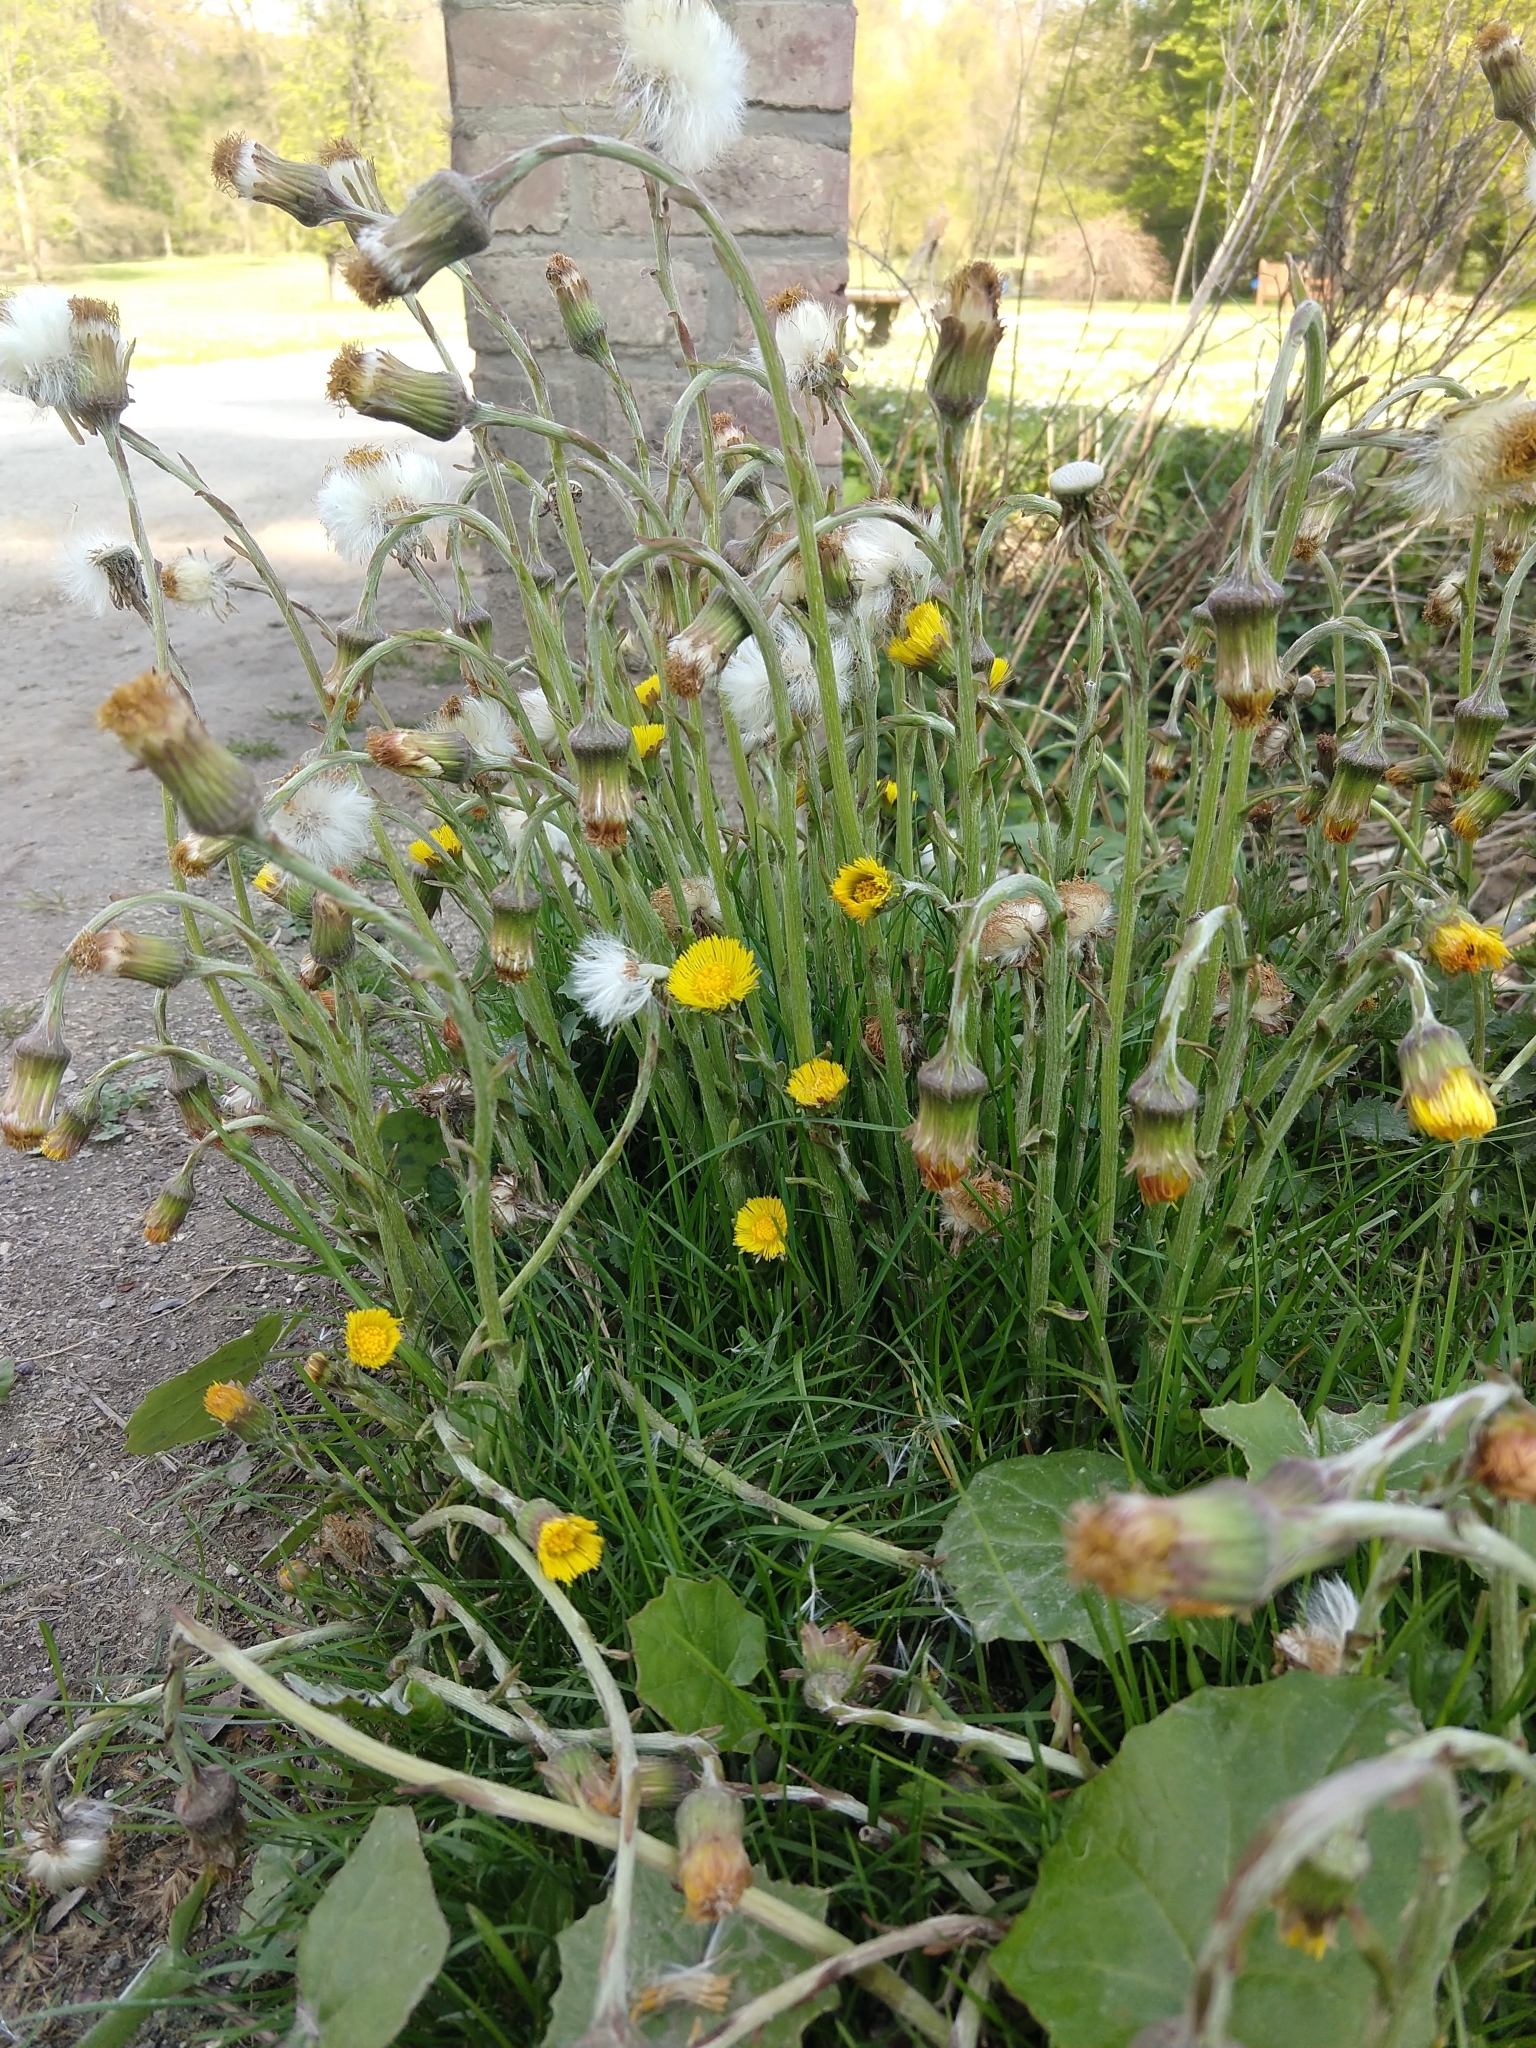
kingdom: Plantae
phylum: Tracheophyta
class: Magnoliopsida
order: Asterales
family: Asteraceae
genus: Tussilago
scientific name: Tussilago farfara
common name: Coltsfoot
